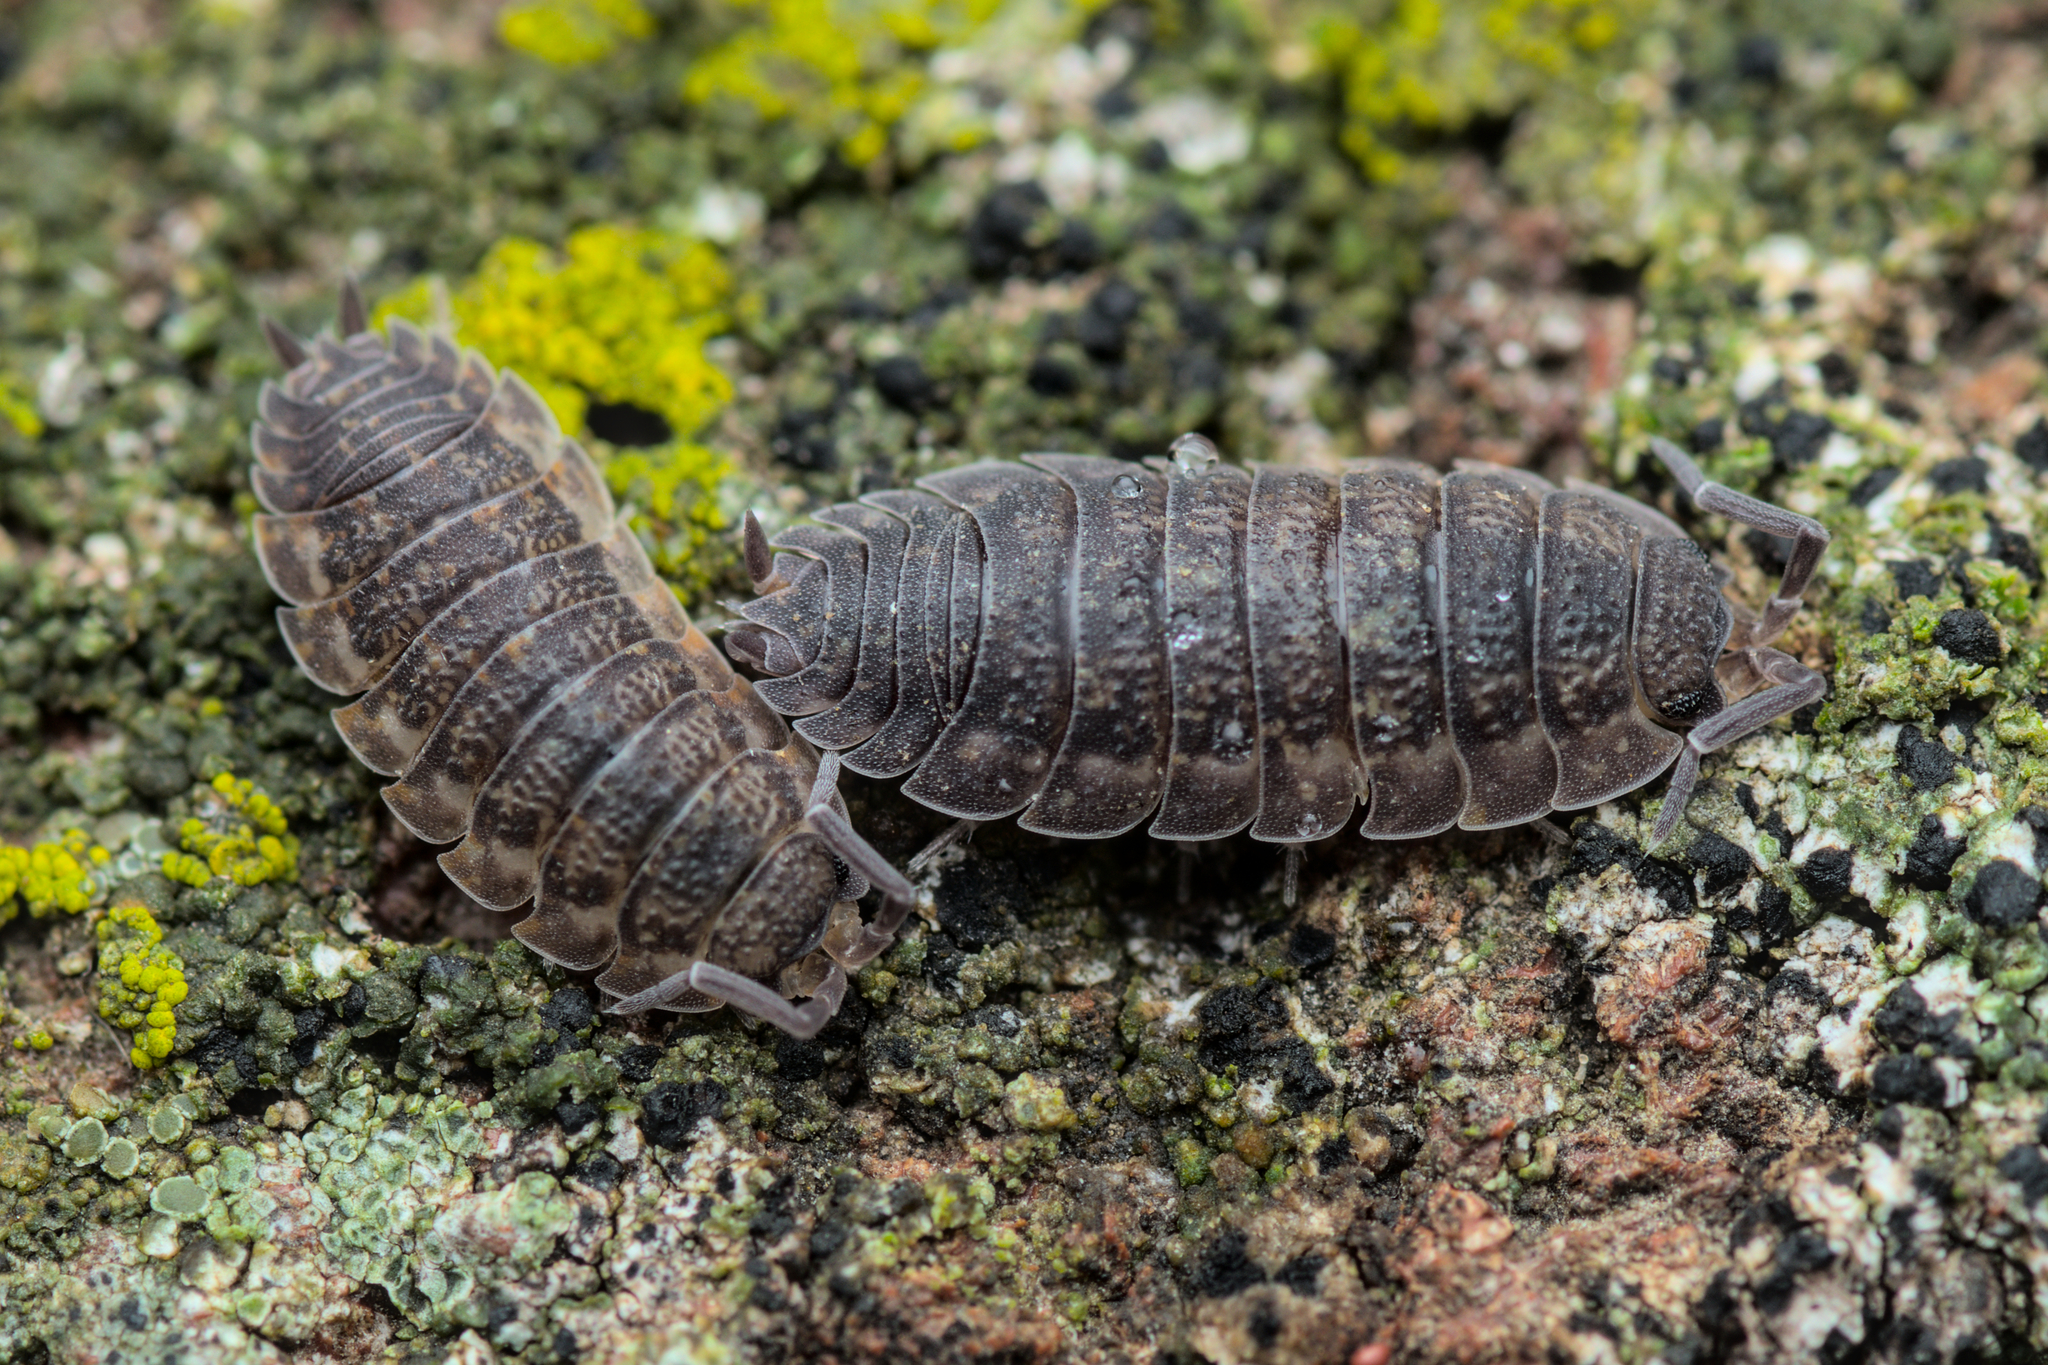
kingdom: Animalia
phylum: Arthropoda
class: Malacostraca
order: Isopoda
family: Porcellionidae
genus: Porcellio
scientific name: Porcellio scaber
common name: Common rough woodlouse
